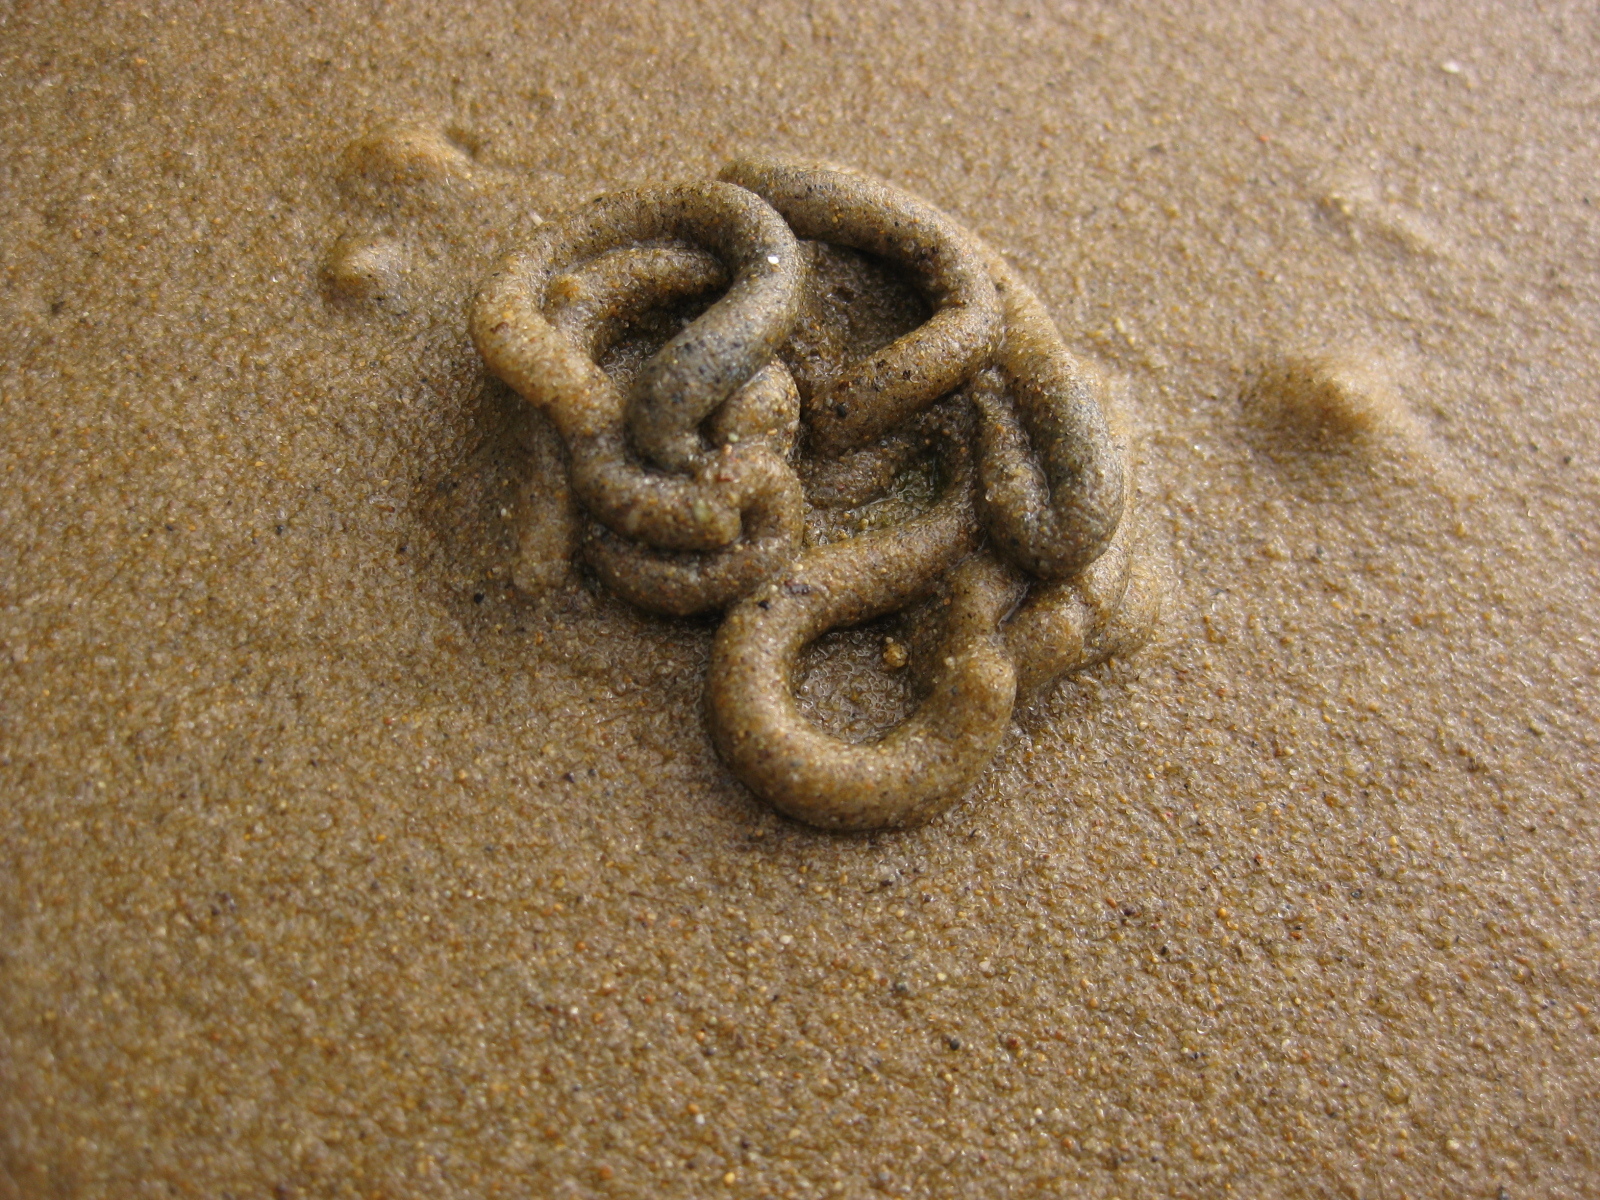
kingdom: Animalia
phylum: Hemichordata
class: Enteropneusta
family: Ptychoderidae
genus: Balanoglossus
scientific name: Balanoglossus australiensis
